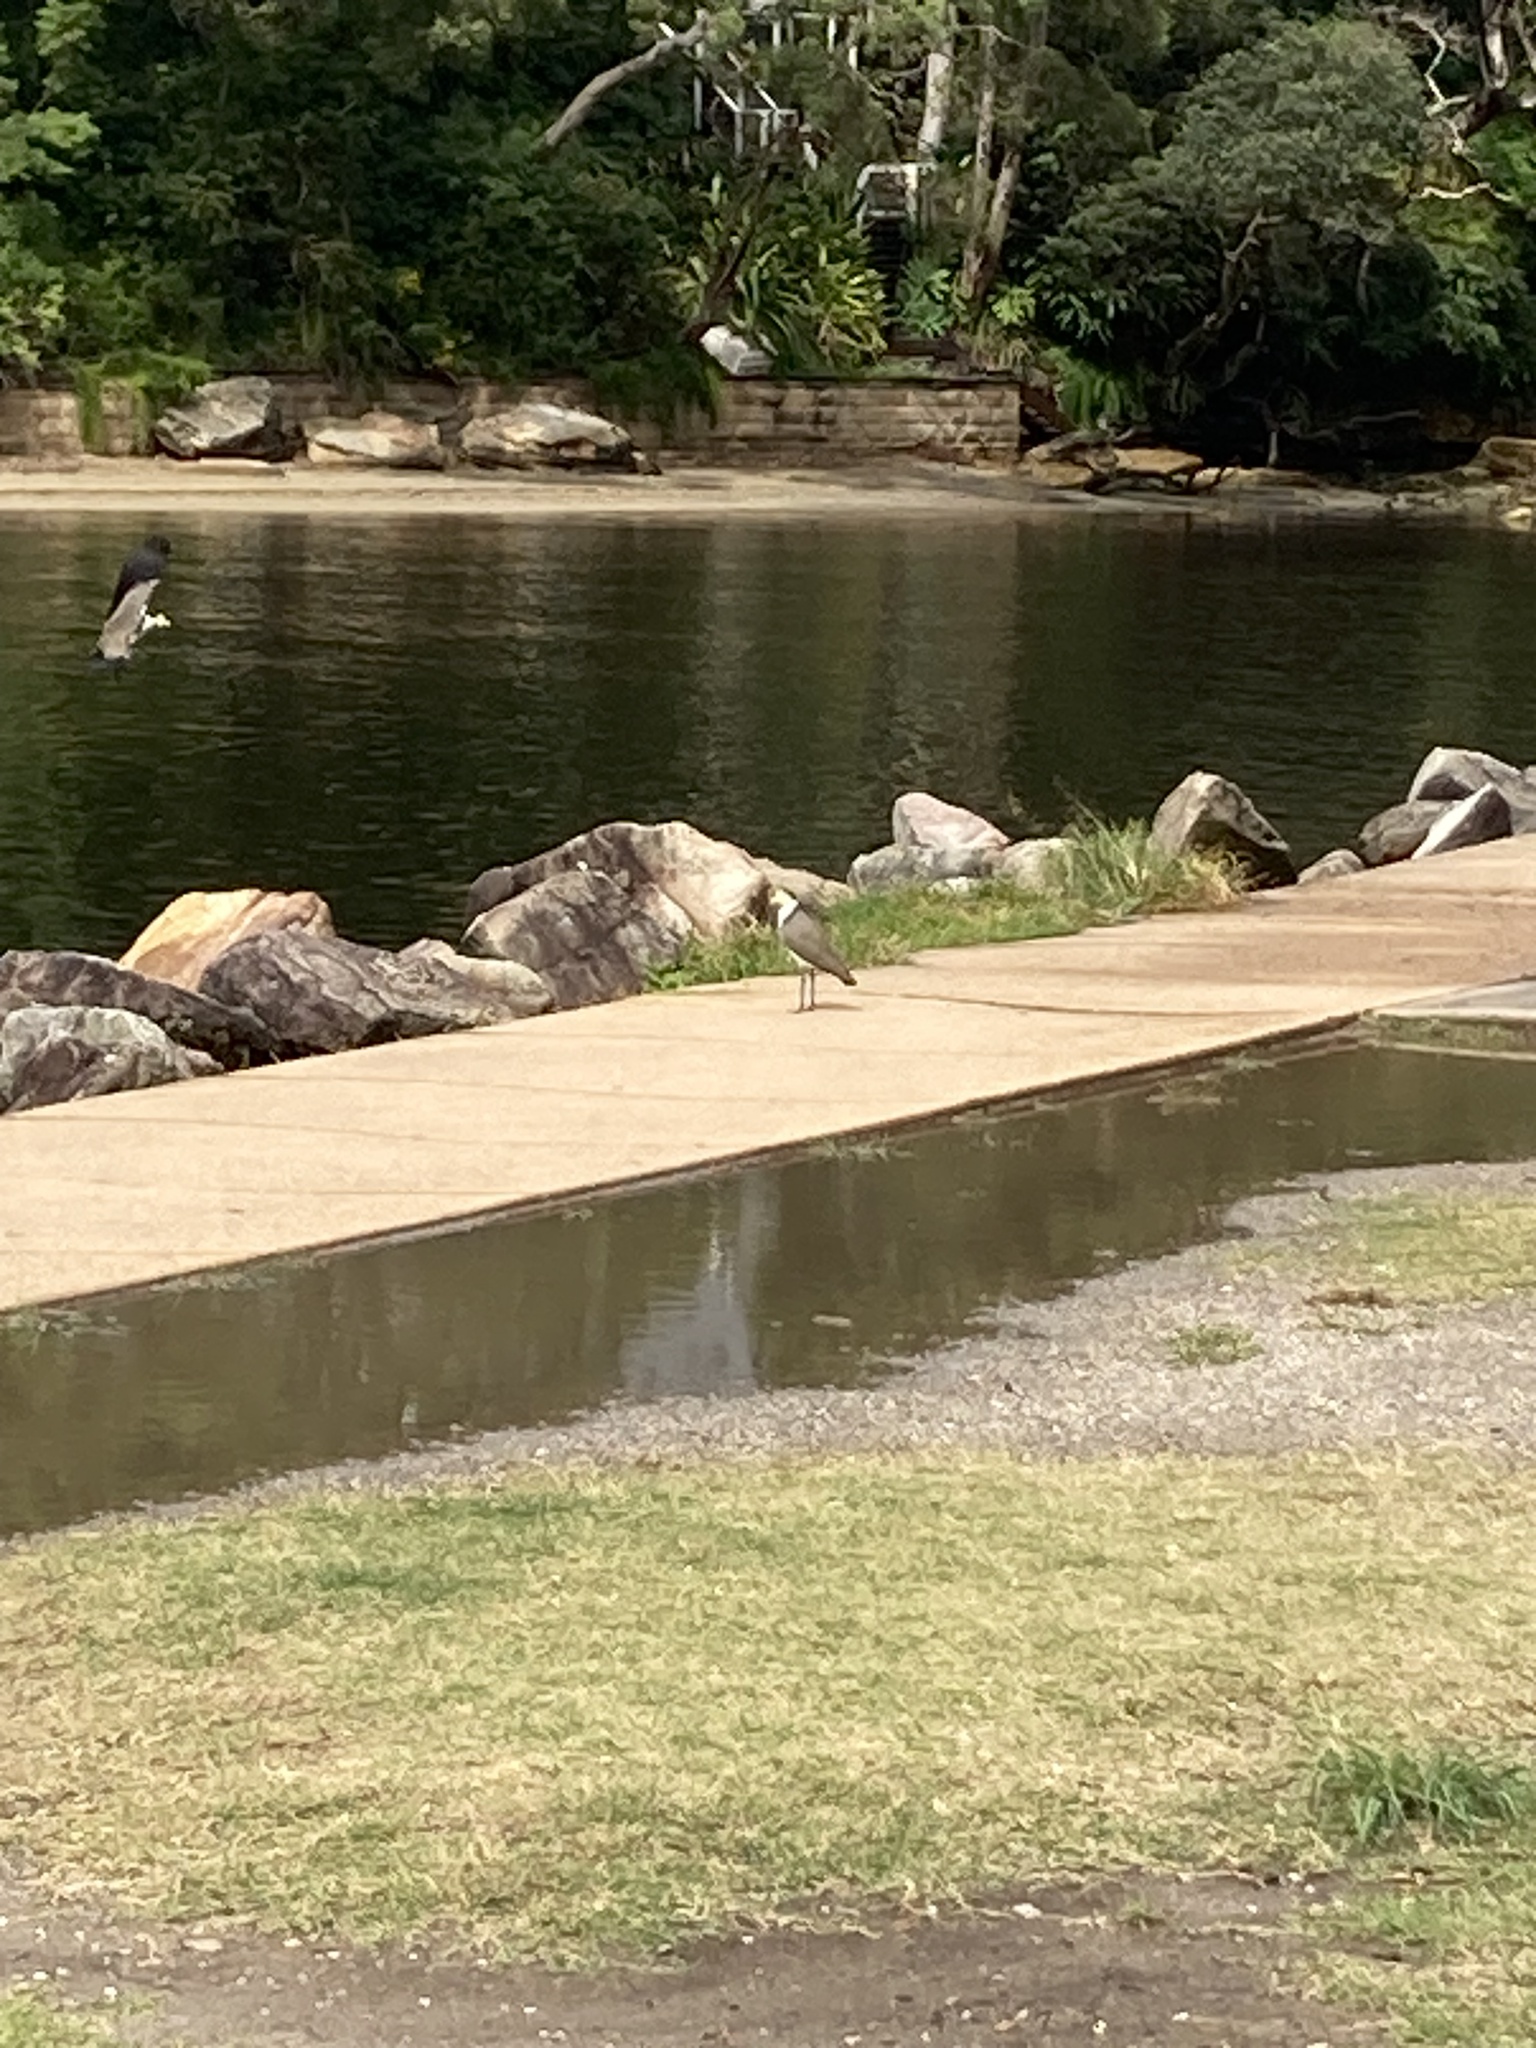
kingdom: Animalia
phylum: Chordata
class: Aves
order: Charadriiformes
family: Charadriidae
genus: Vanellus
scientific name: Vanellus miles
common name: Masked lapwing
